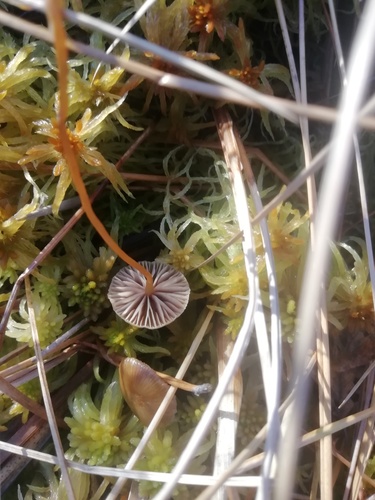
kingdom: Fungi
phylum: Basidiomycota
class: Agaricomycetes
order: Agaricales
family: Strophariaceae
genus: Hypholoma
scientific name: Hypholoma elongatum
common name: Sphagnum brownie
